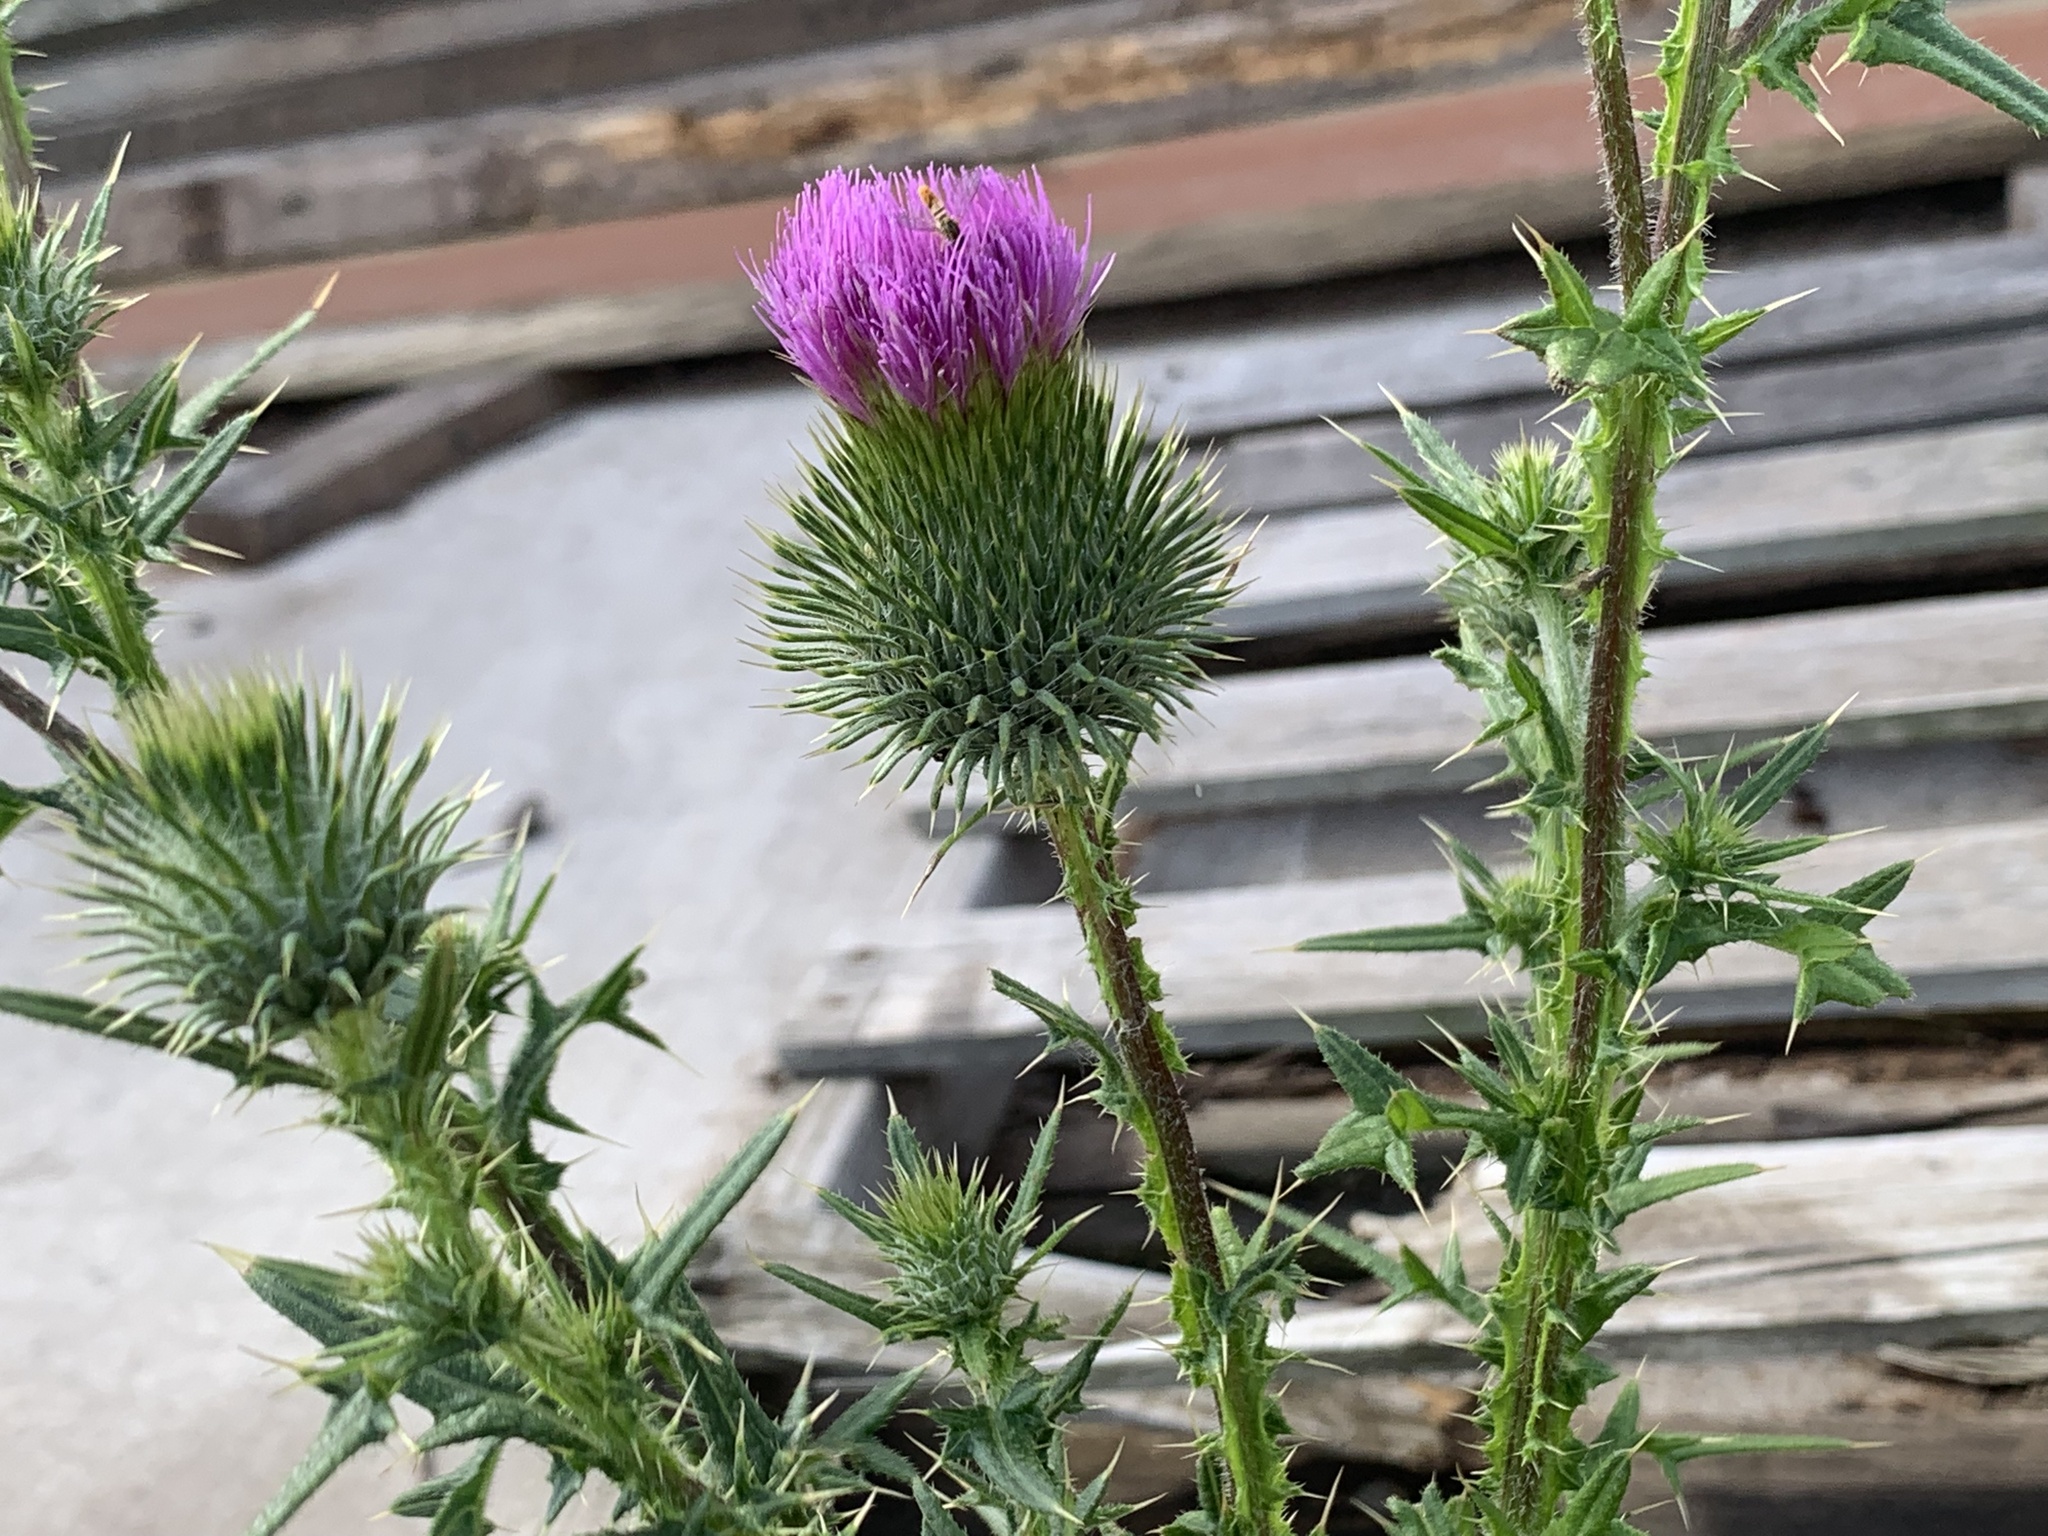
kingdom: Plantae
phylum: Tracheophyta
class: Magnoliopsida
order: Asterales
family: Asteraceae
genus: Cirsium
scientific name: Cirsium vulgare
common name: Bull thistle
